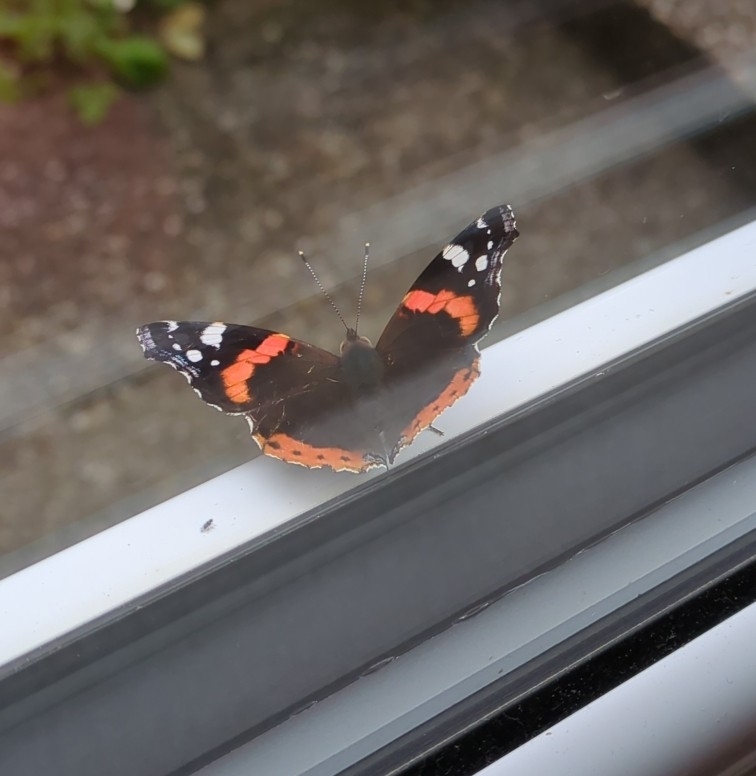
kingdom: Animalia
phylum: Arthropoda
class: Insecta
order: Lepidoptera
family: Nymphalidae
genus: Vanessa
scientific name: Vanessa atalanta
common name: Red admiral
